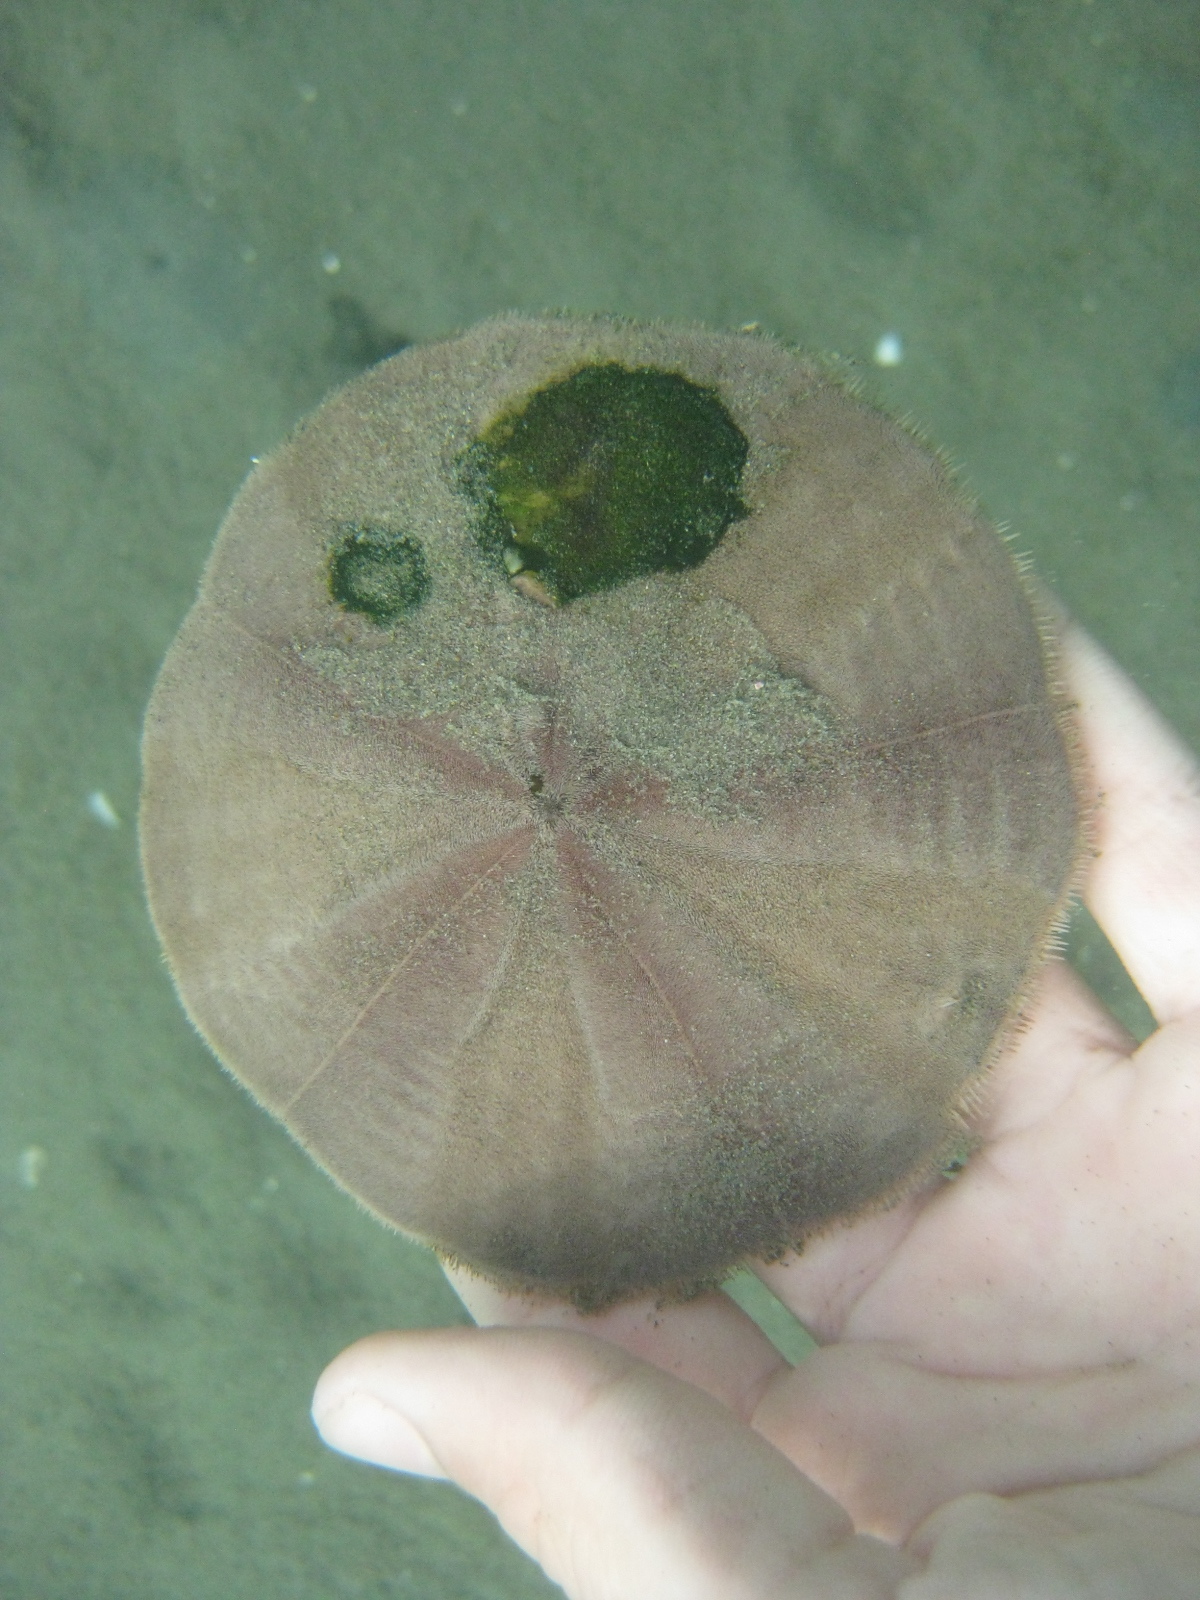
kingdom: Animalia
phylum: Echinodermata
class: Echinoidea
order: Clypeasteroida
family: Clypeasteridae
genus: Fellaster
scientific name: Fellaster zelandiae
